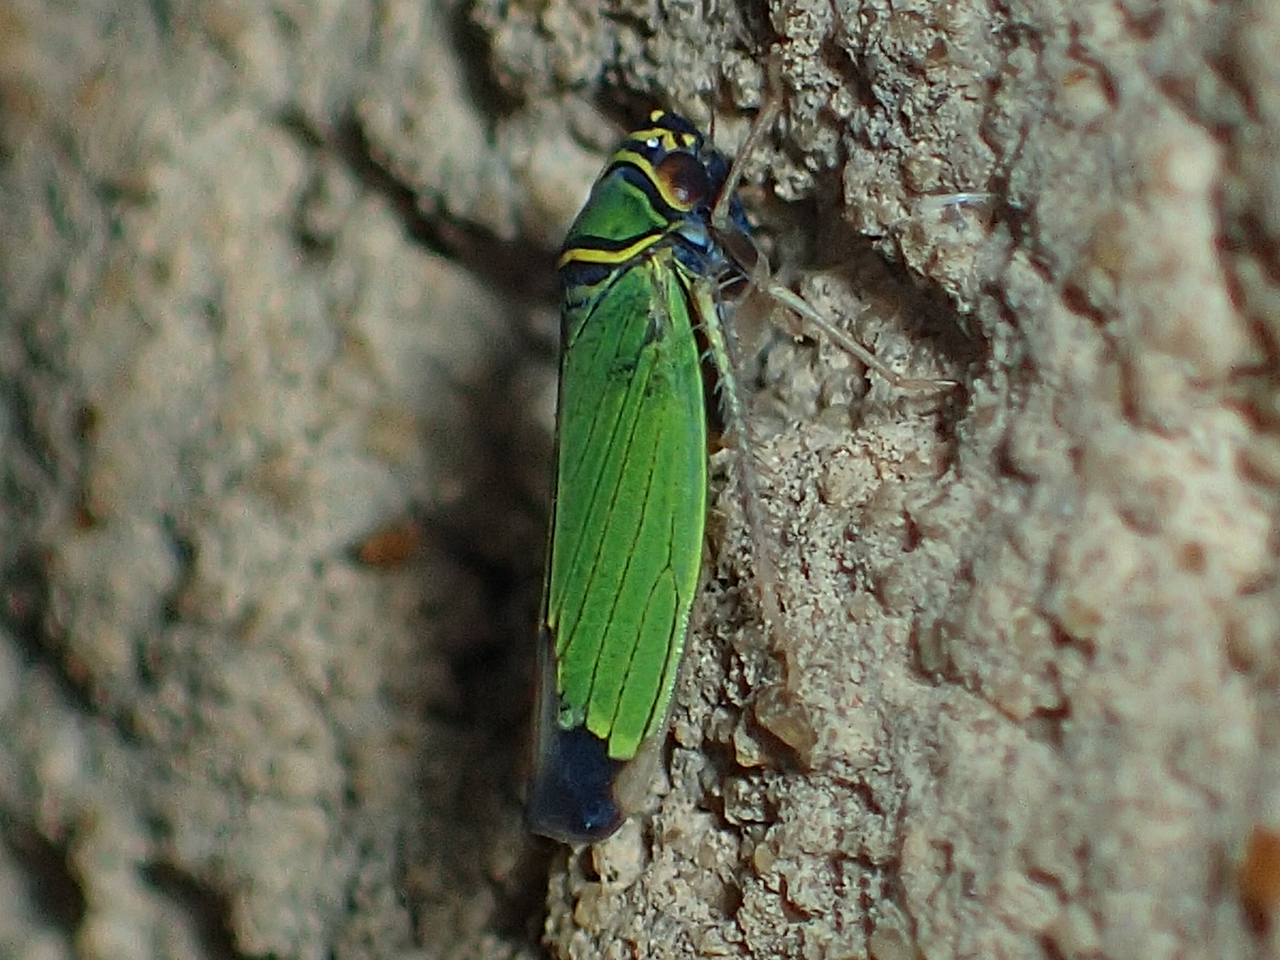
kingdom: Animalia
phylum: Arthropoda
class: Insecta
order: Hemiptera
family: Cicadellidae
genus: Tylozygus
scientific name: Tylozygus geometricus
